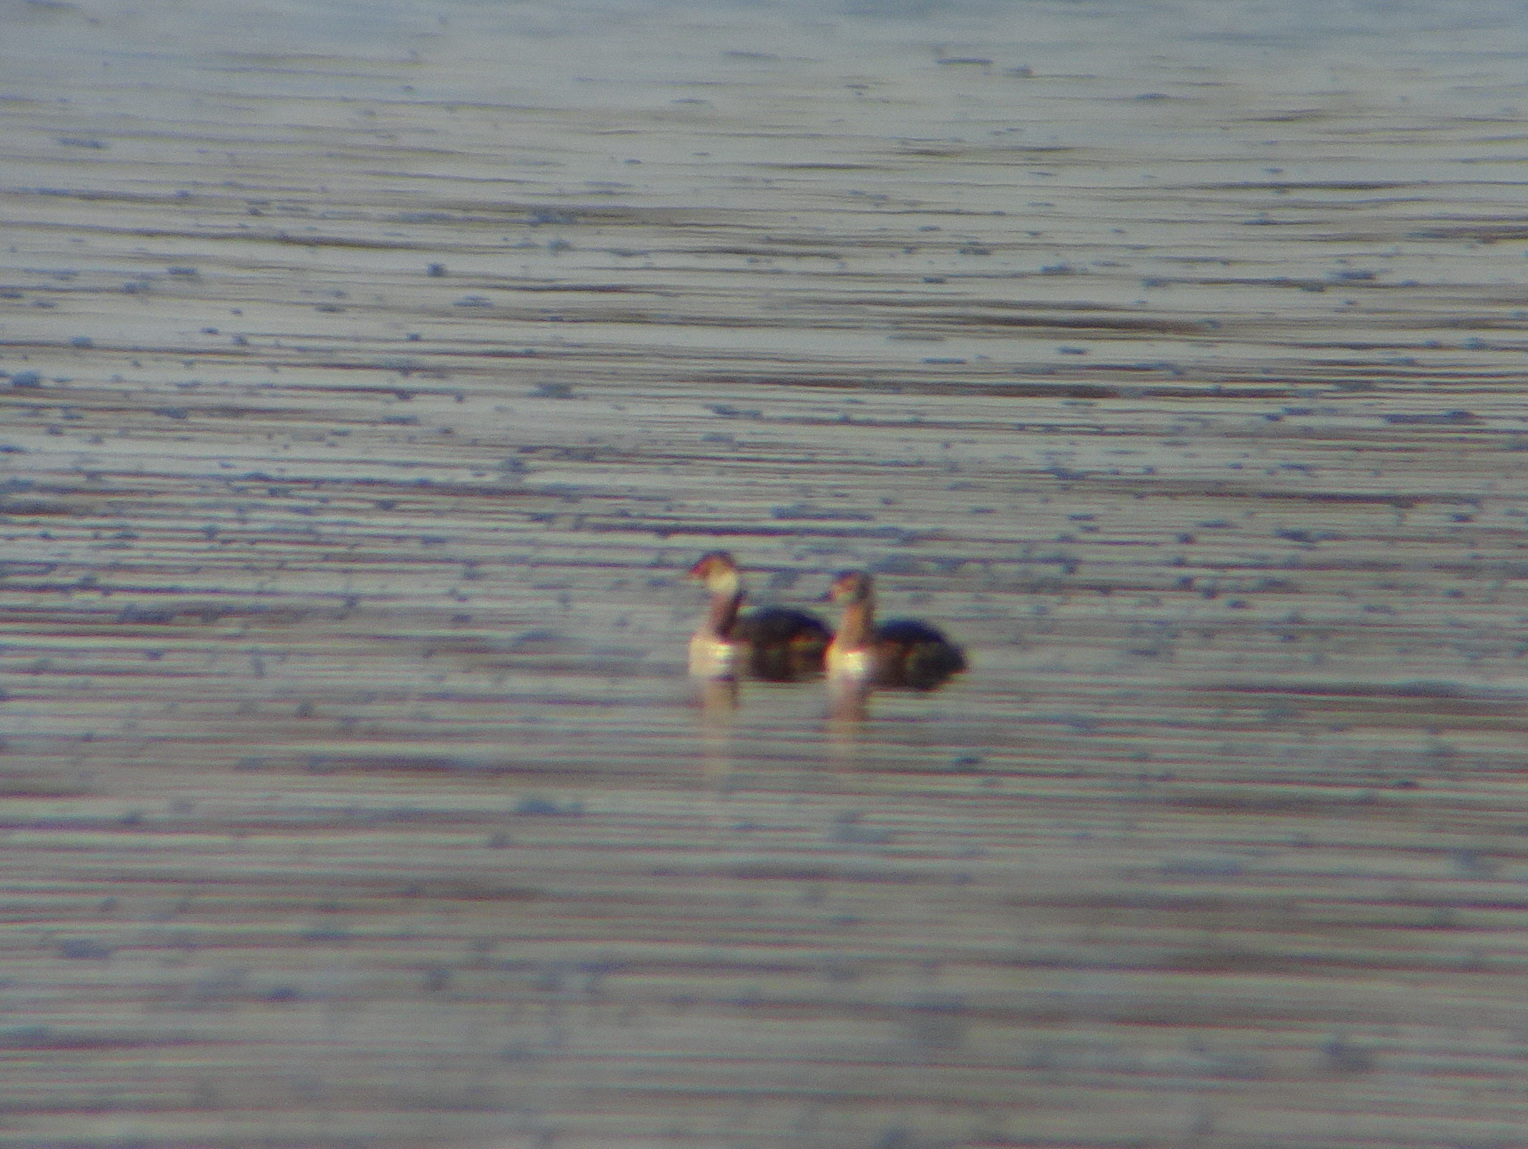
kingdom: Animalia
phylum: Chordata
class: Aves
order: Podicipediformes
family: Podicipedidae
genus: Podiceps
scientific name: Podiceps auritus
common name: Horned grebe
